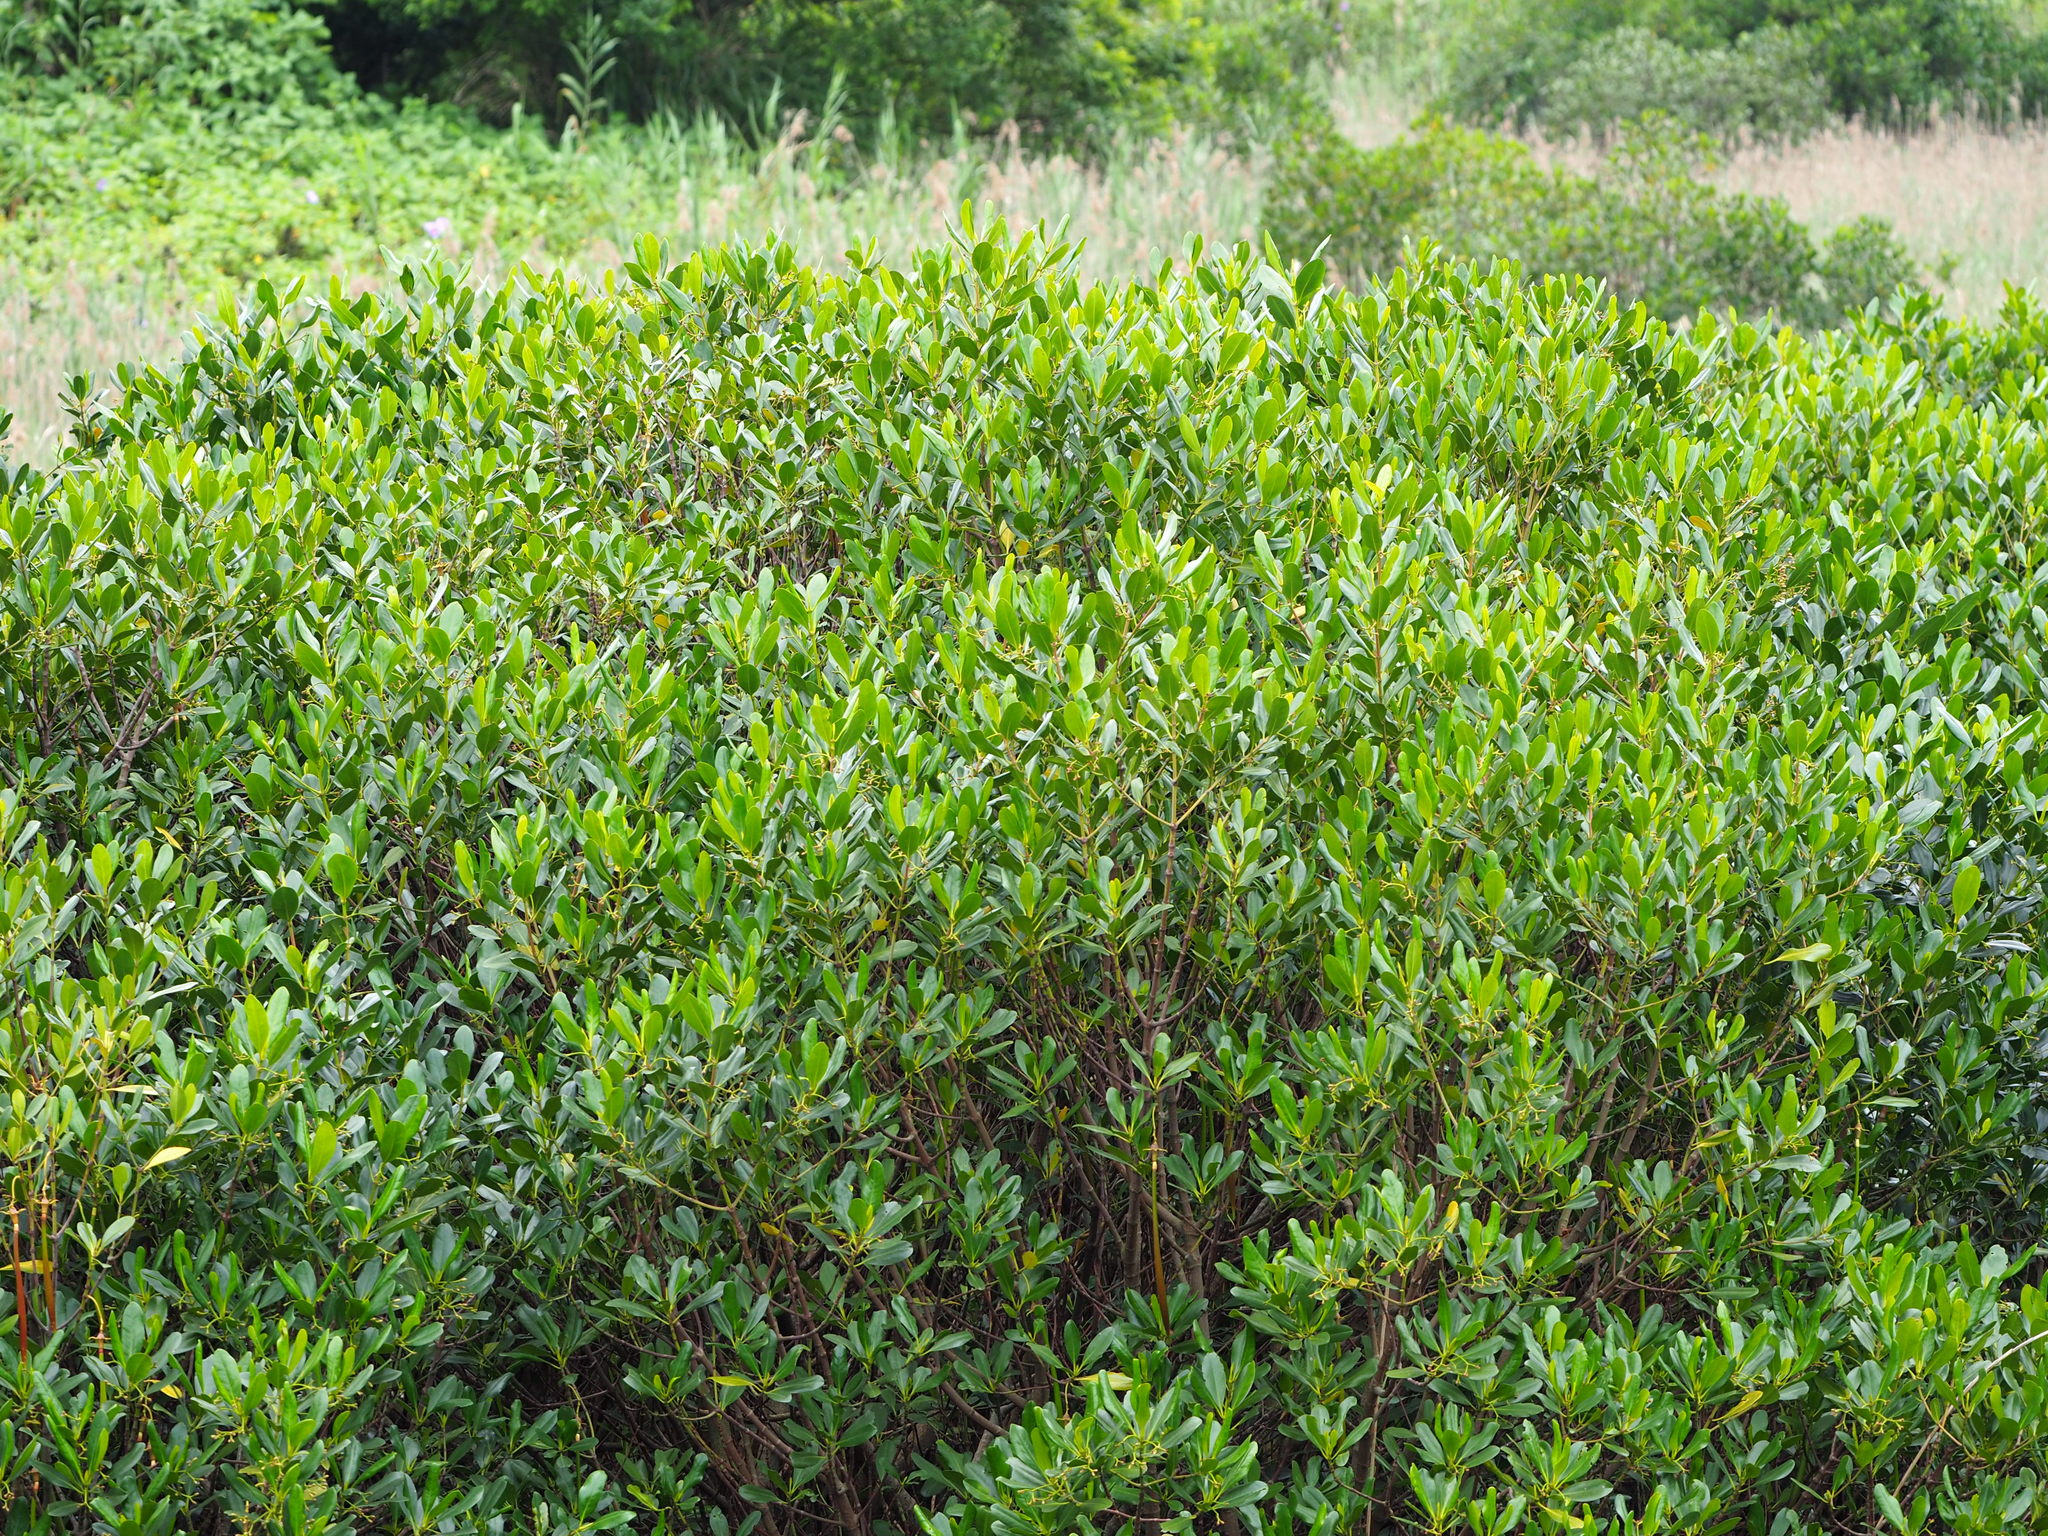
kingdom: Plantae
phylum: Tracheophyta
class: Magnoliopsida
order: Malpighiales
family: Rhizophoraceae
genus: Kandelia
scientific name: Kandelia obovata
